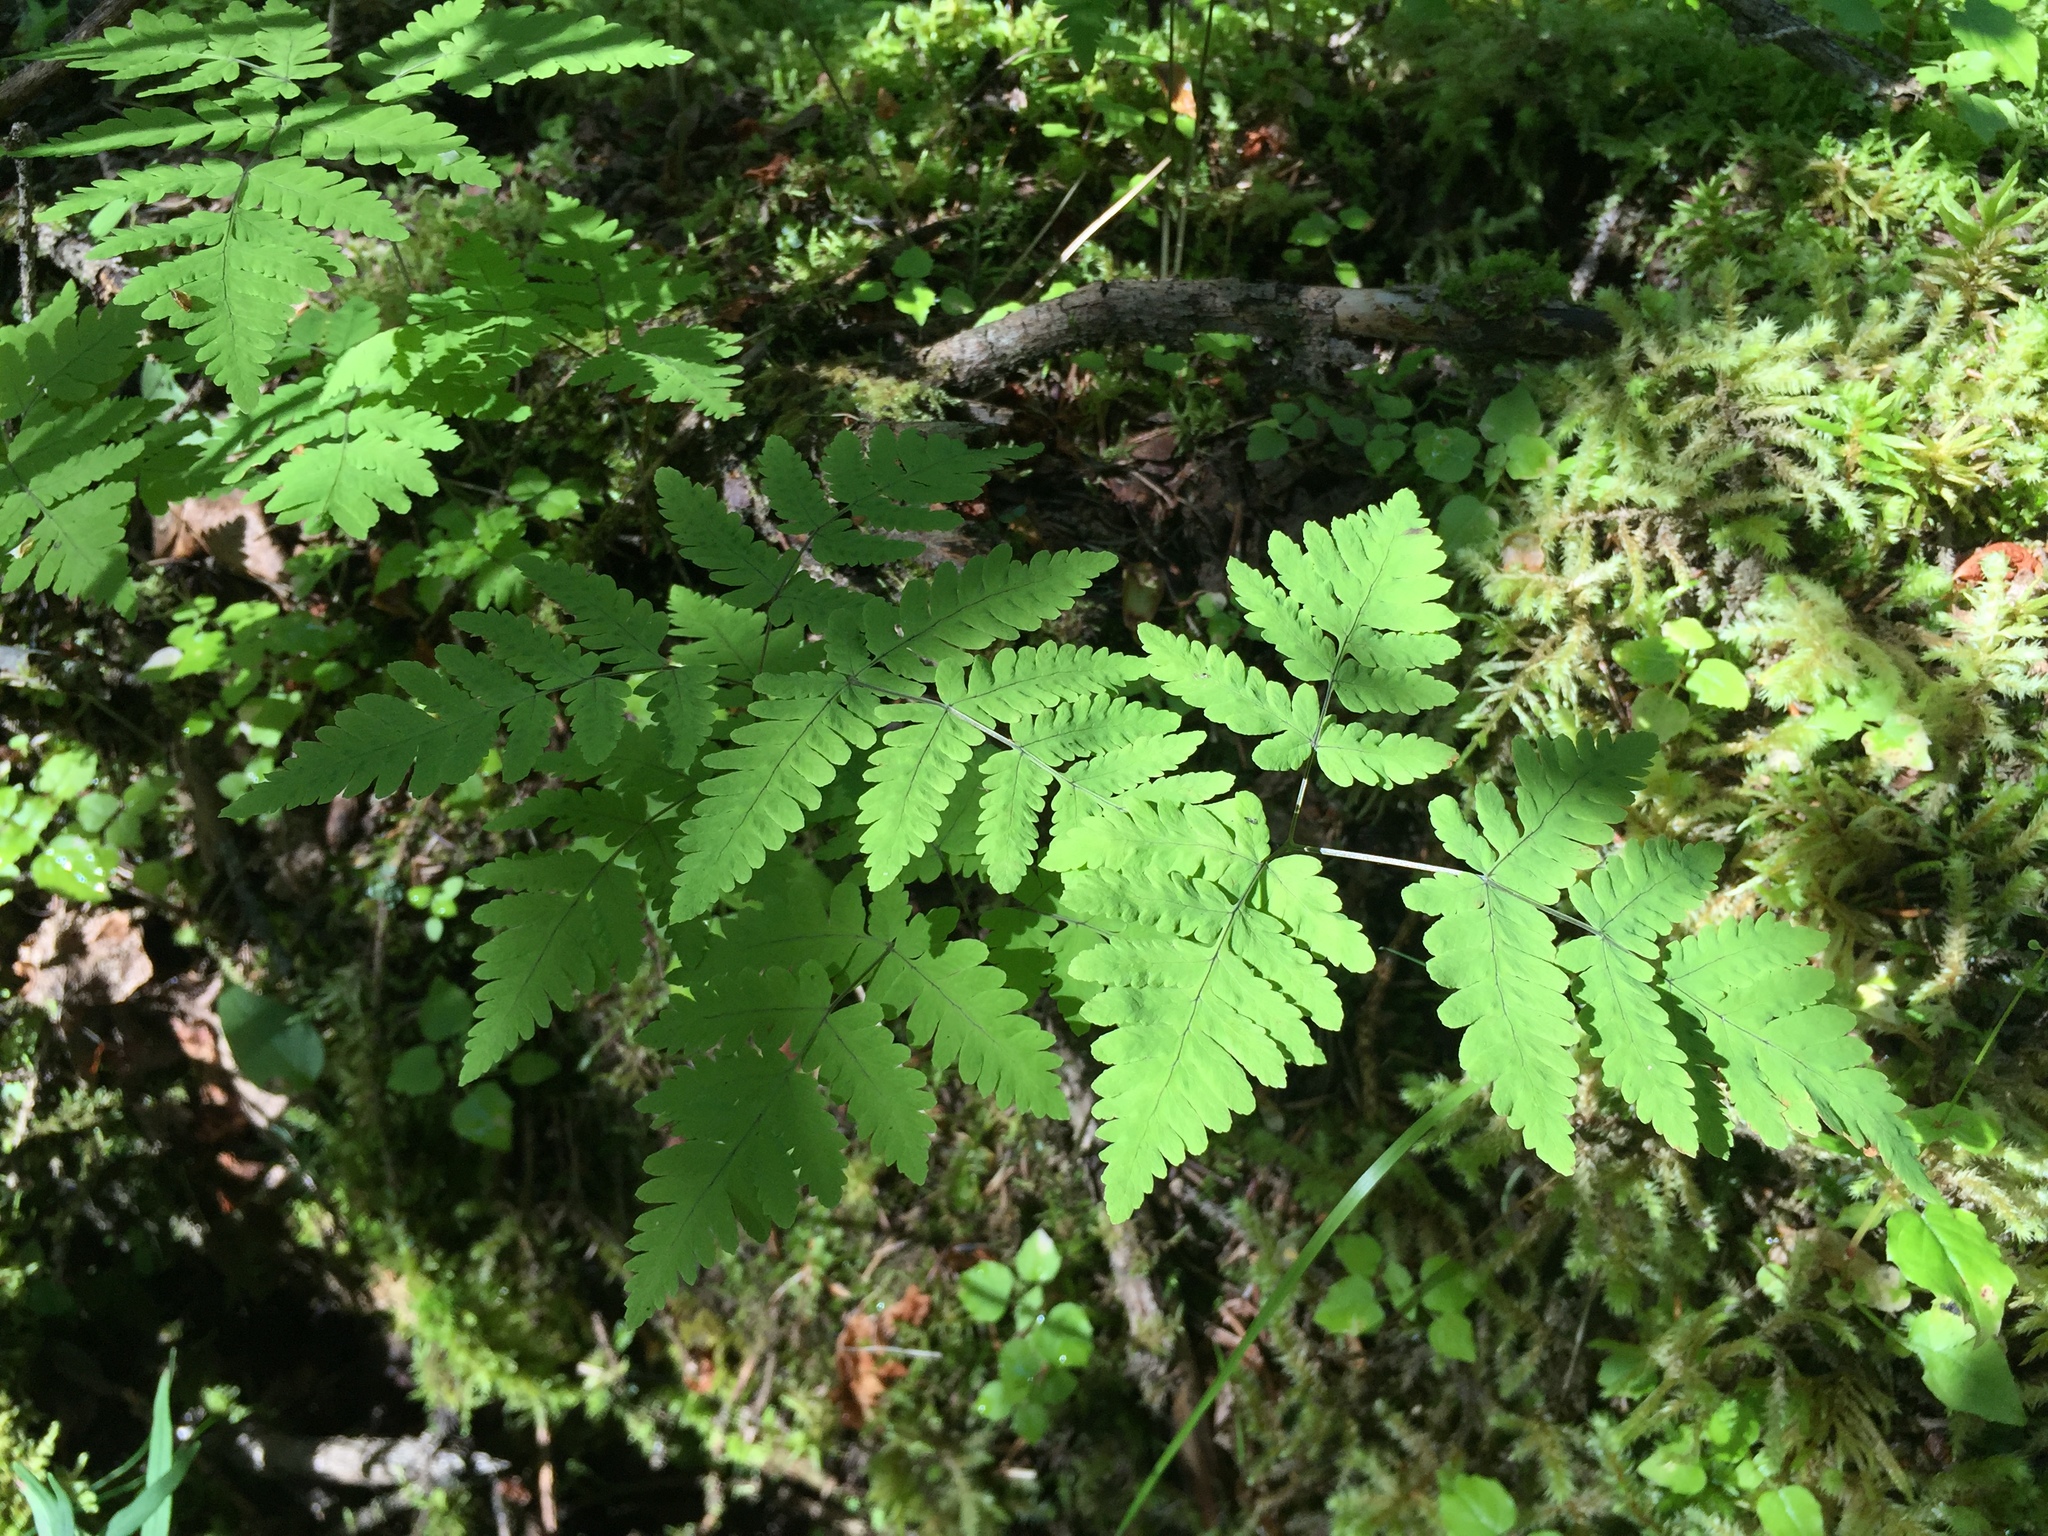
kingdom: Plantae
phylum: Tracheophyta
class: Polypodiopsida
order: Polypodiales
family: Cystopteridaceae
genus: Gymnocarpium
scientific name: Gymnocarpium dryopteris
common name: Oak fern
